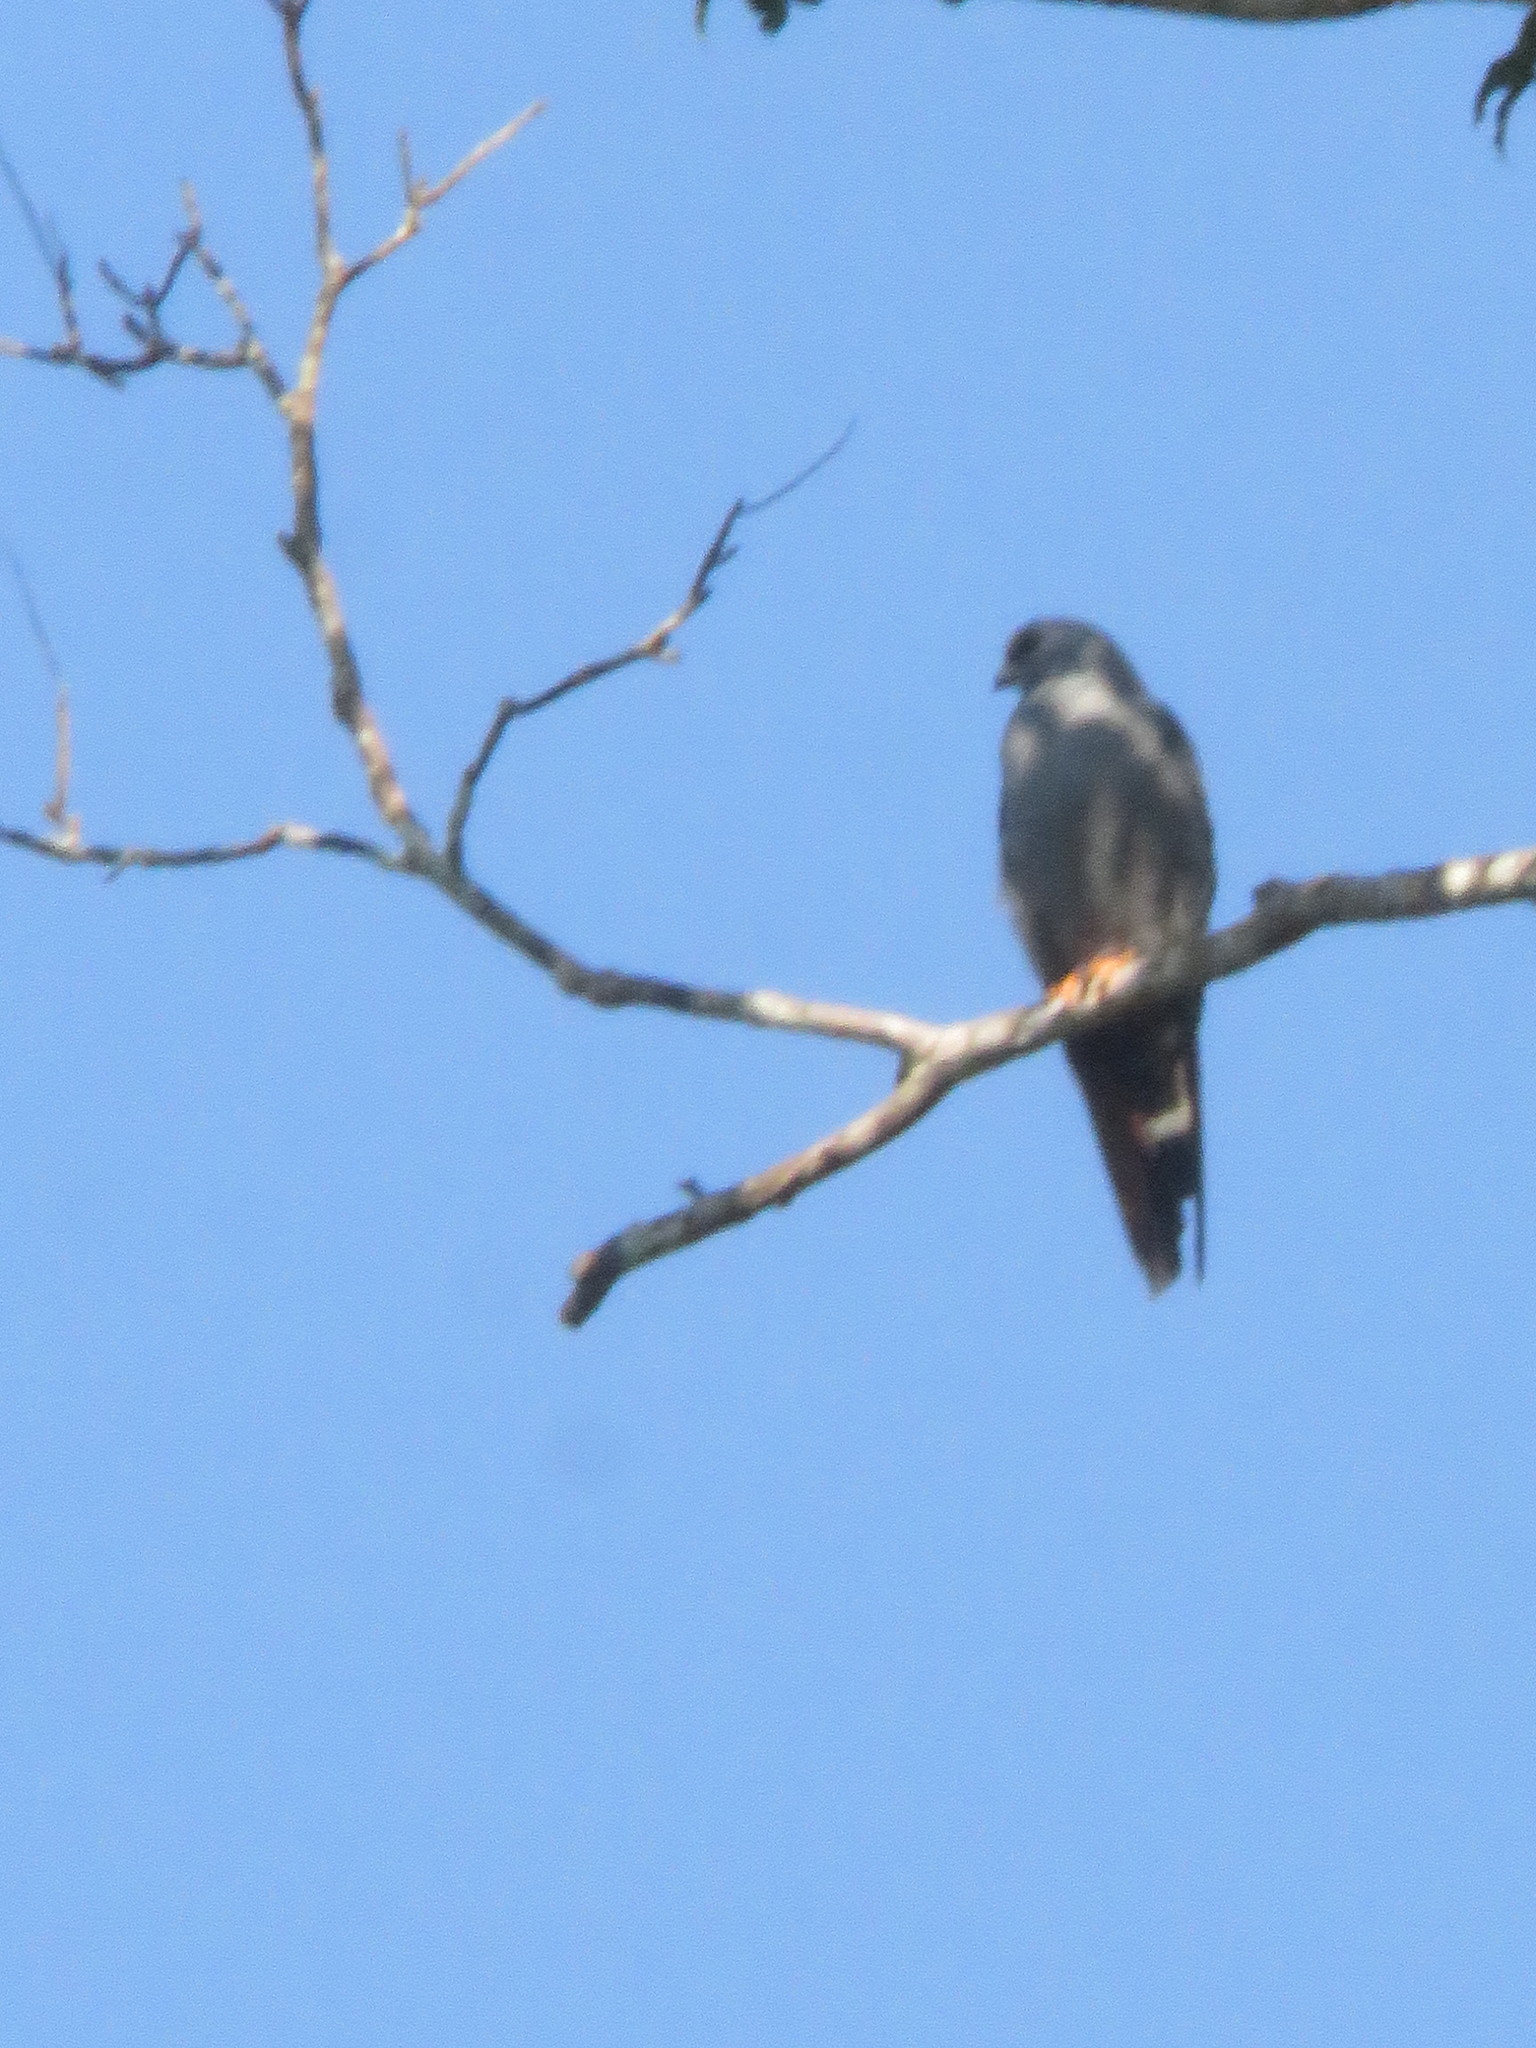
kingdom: Animalia
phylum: Chordata
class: Aves
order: Accipitriformes
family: Accipitridae
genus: Ictinia
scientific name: Ictinia plumbea
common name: Plumbeous kite
